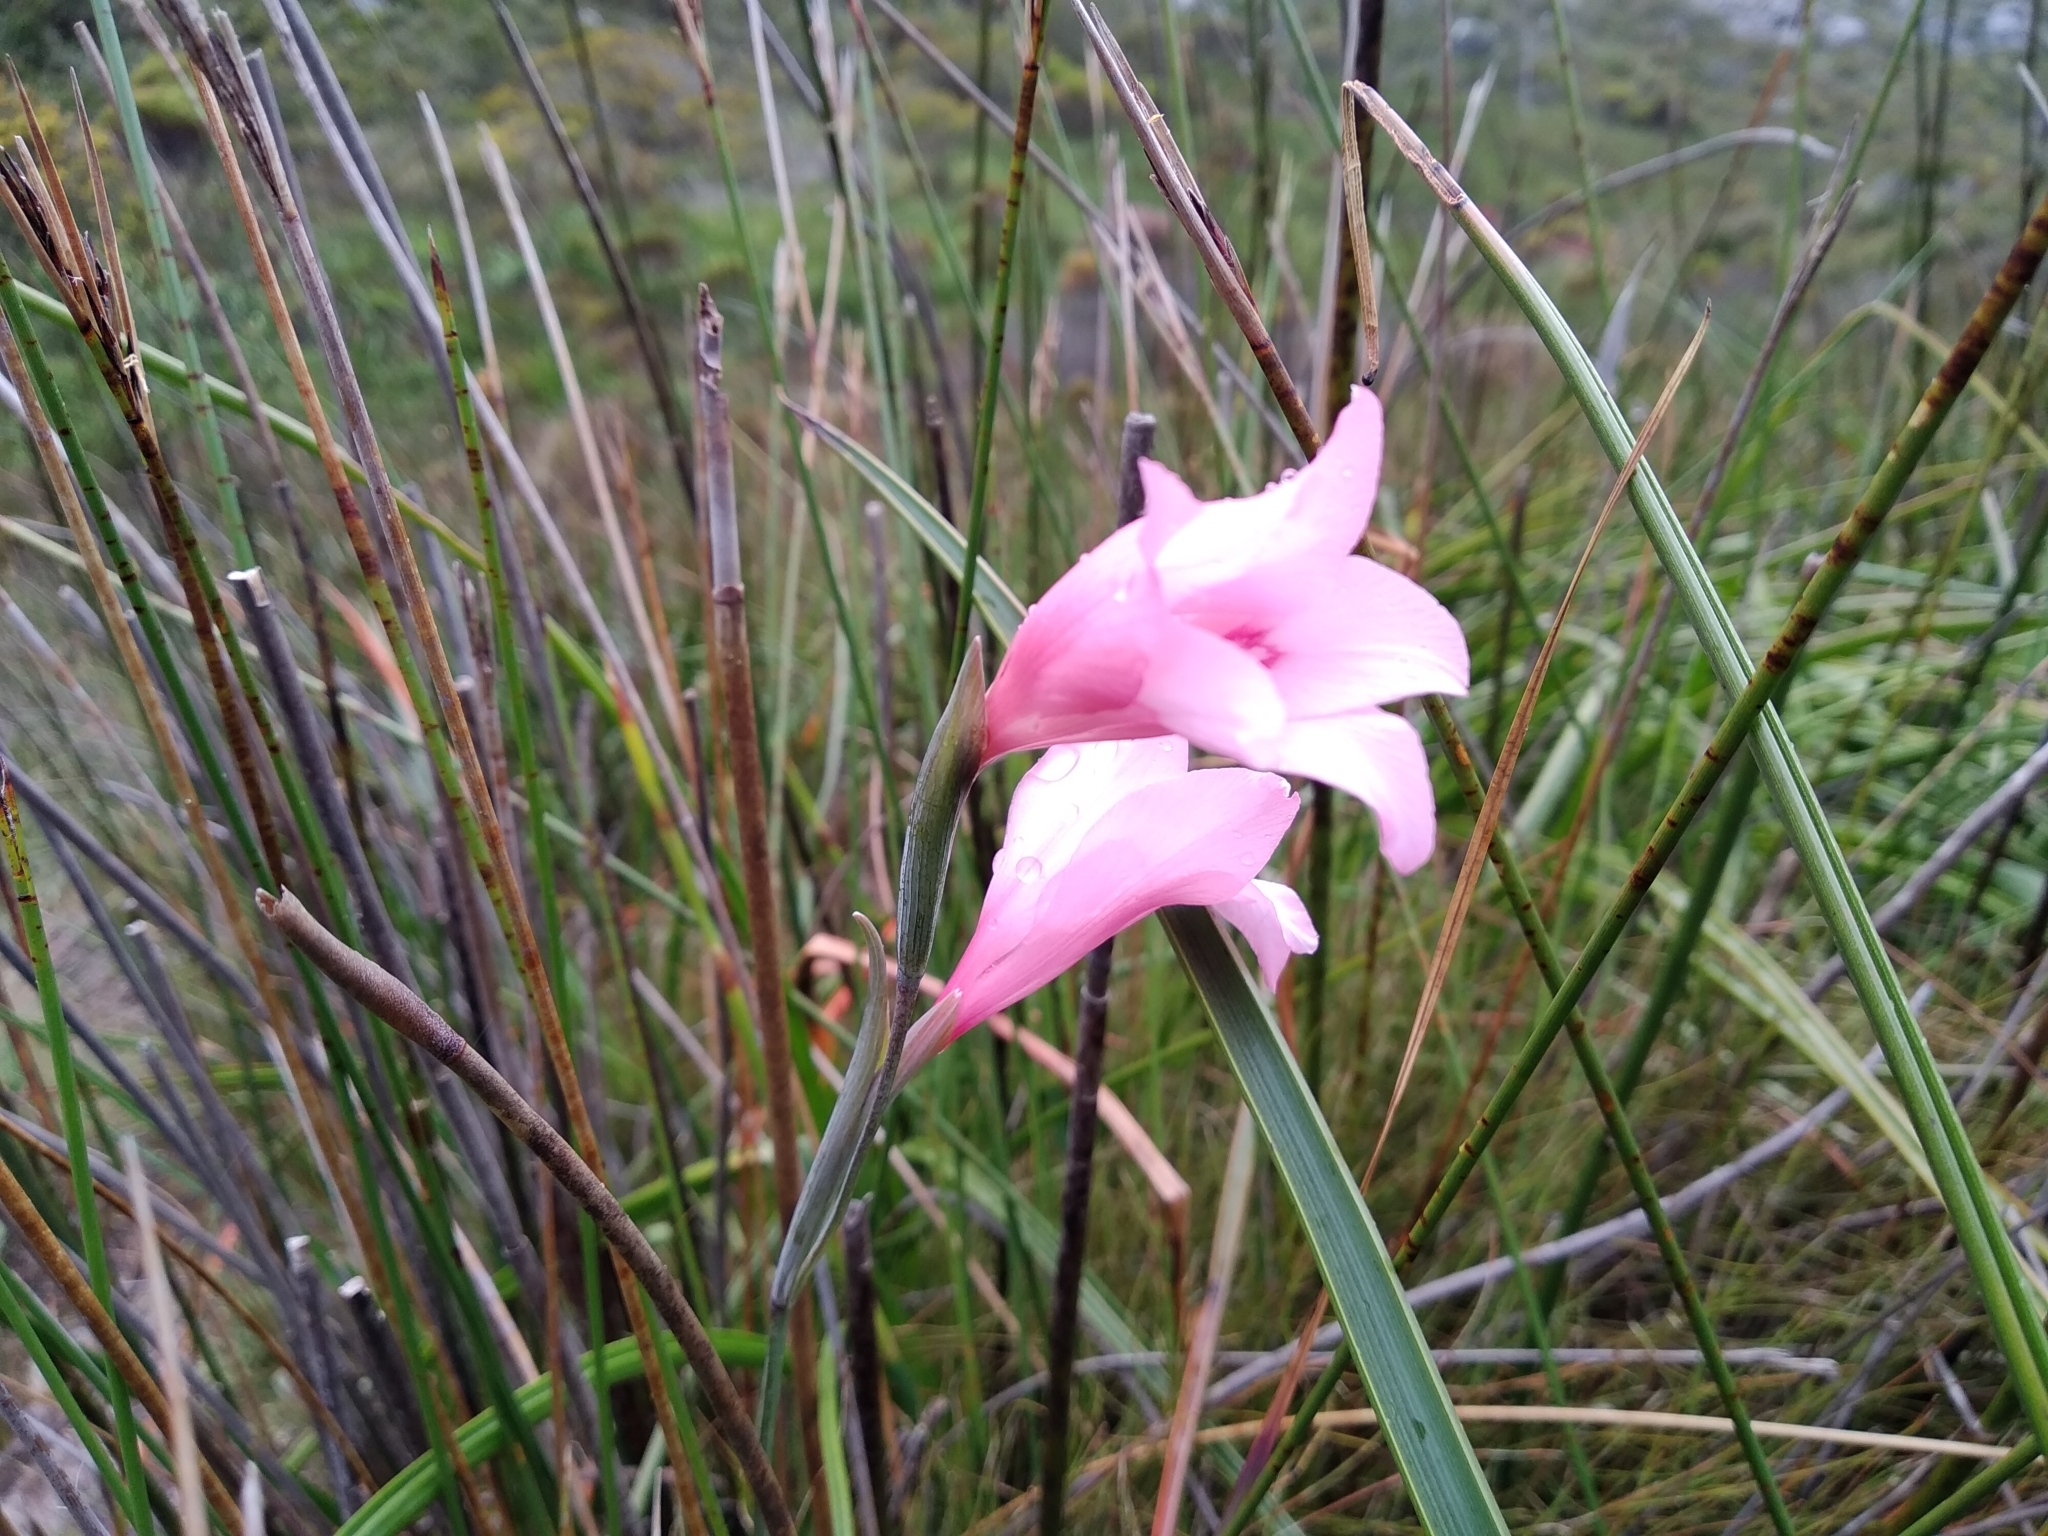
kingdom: Plantae
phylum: Tracheophyta
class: Liliopsida
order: Asparagales
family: Iridaceae
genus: Gladiolus
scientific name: Gladiolus pappei
